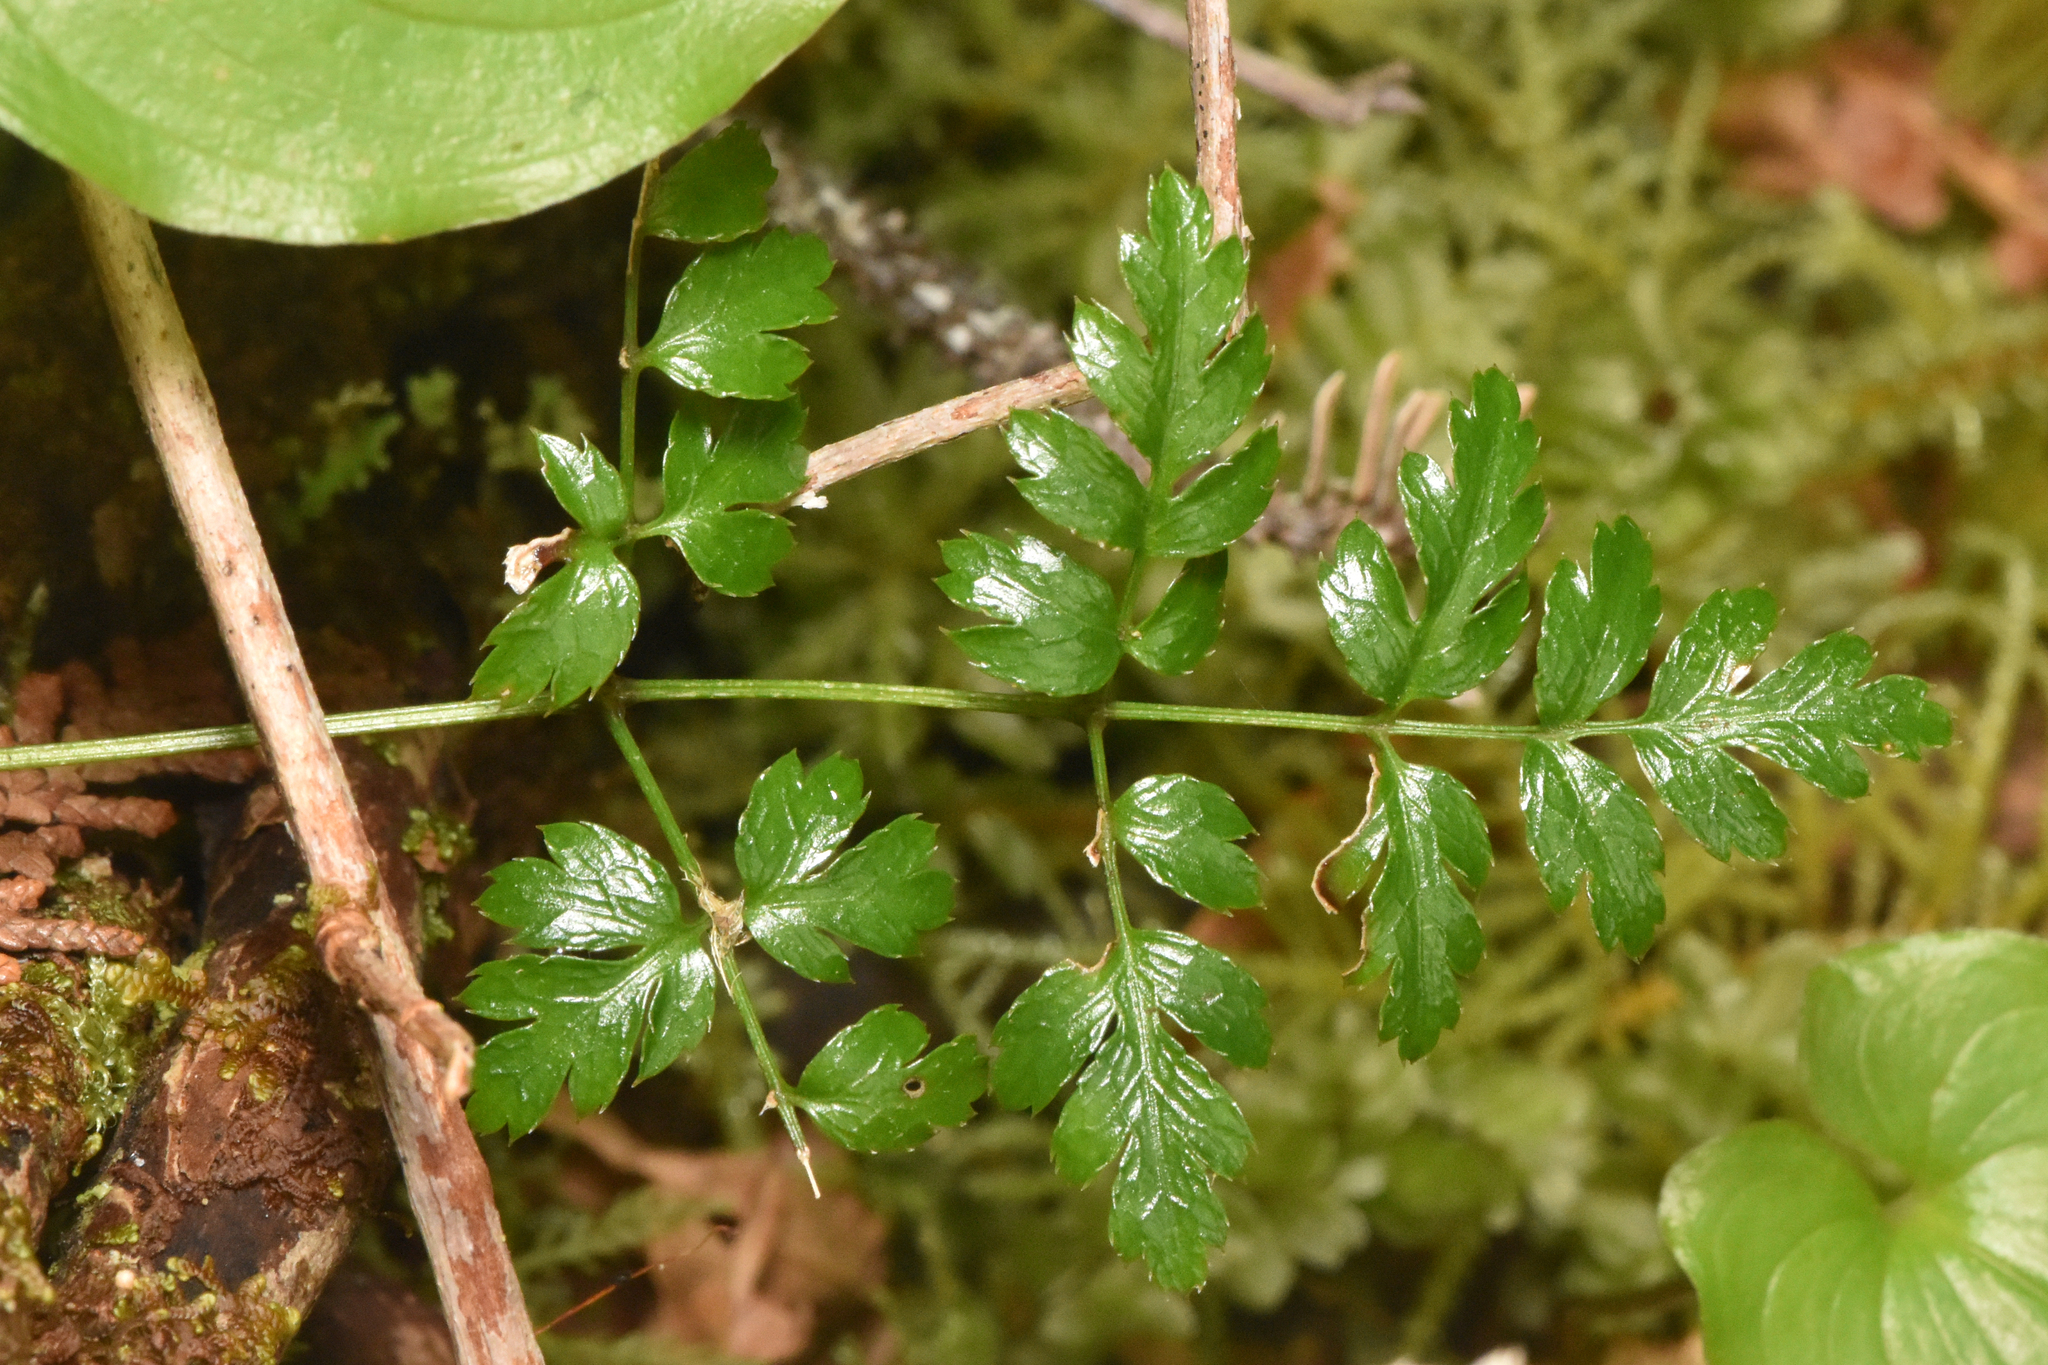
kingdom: Plantae
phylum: Tracheophyta
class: Magnoliopsida
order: Ranunculales
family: Ranunculaceae
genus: Coptis
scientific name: Coptis aspleniifolia
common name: Fern-leaved goldthread
